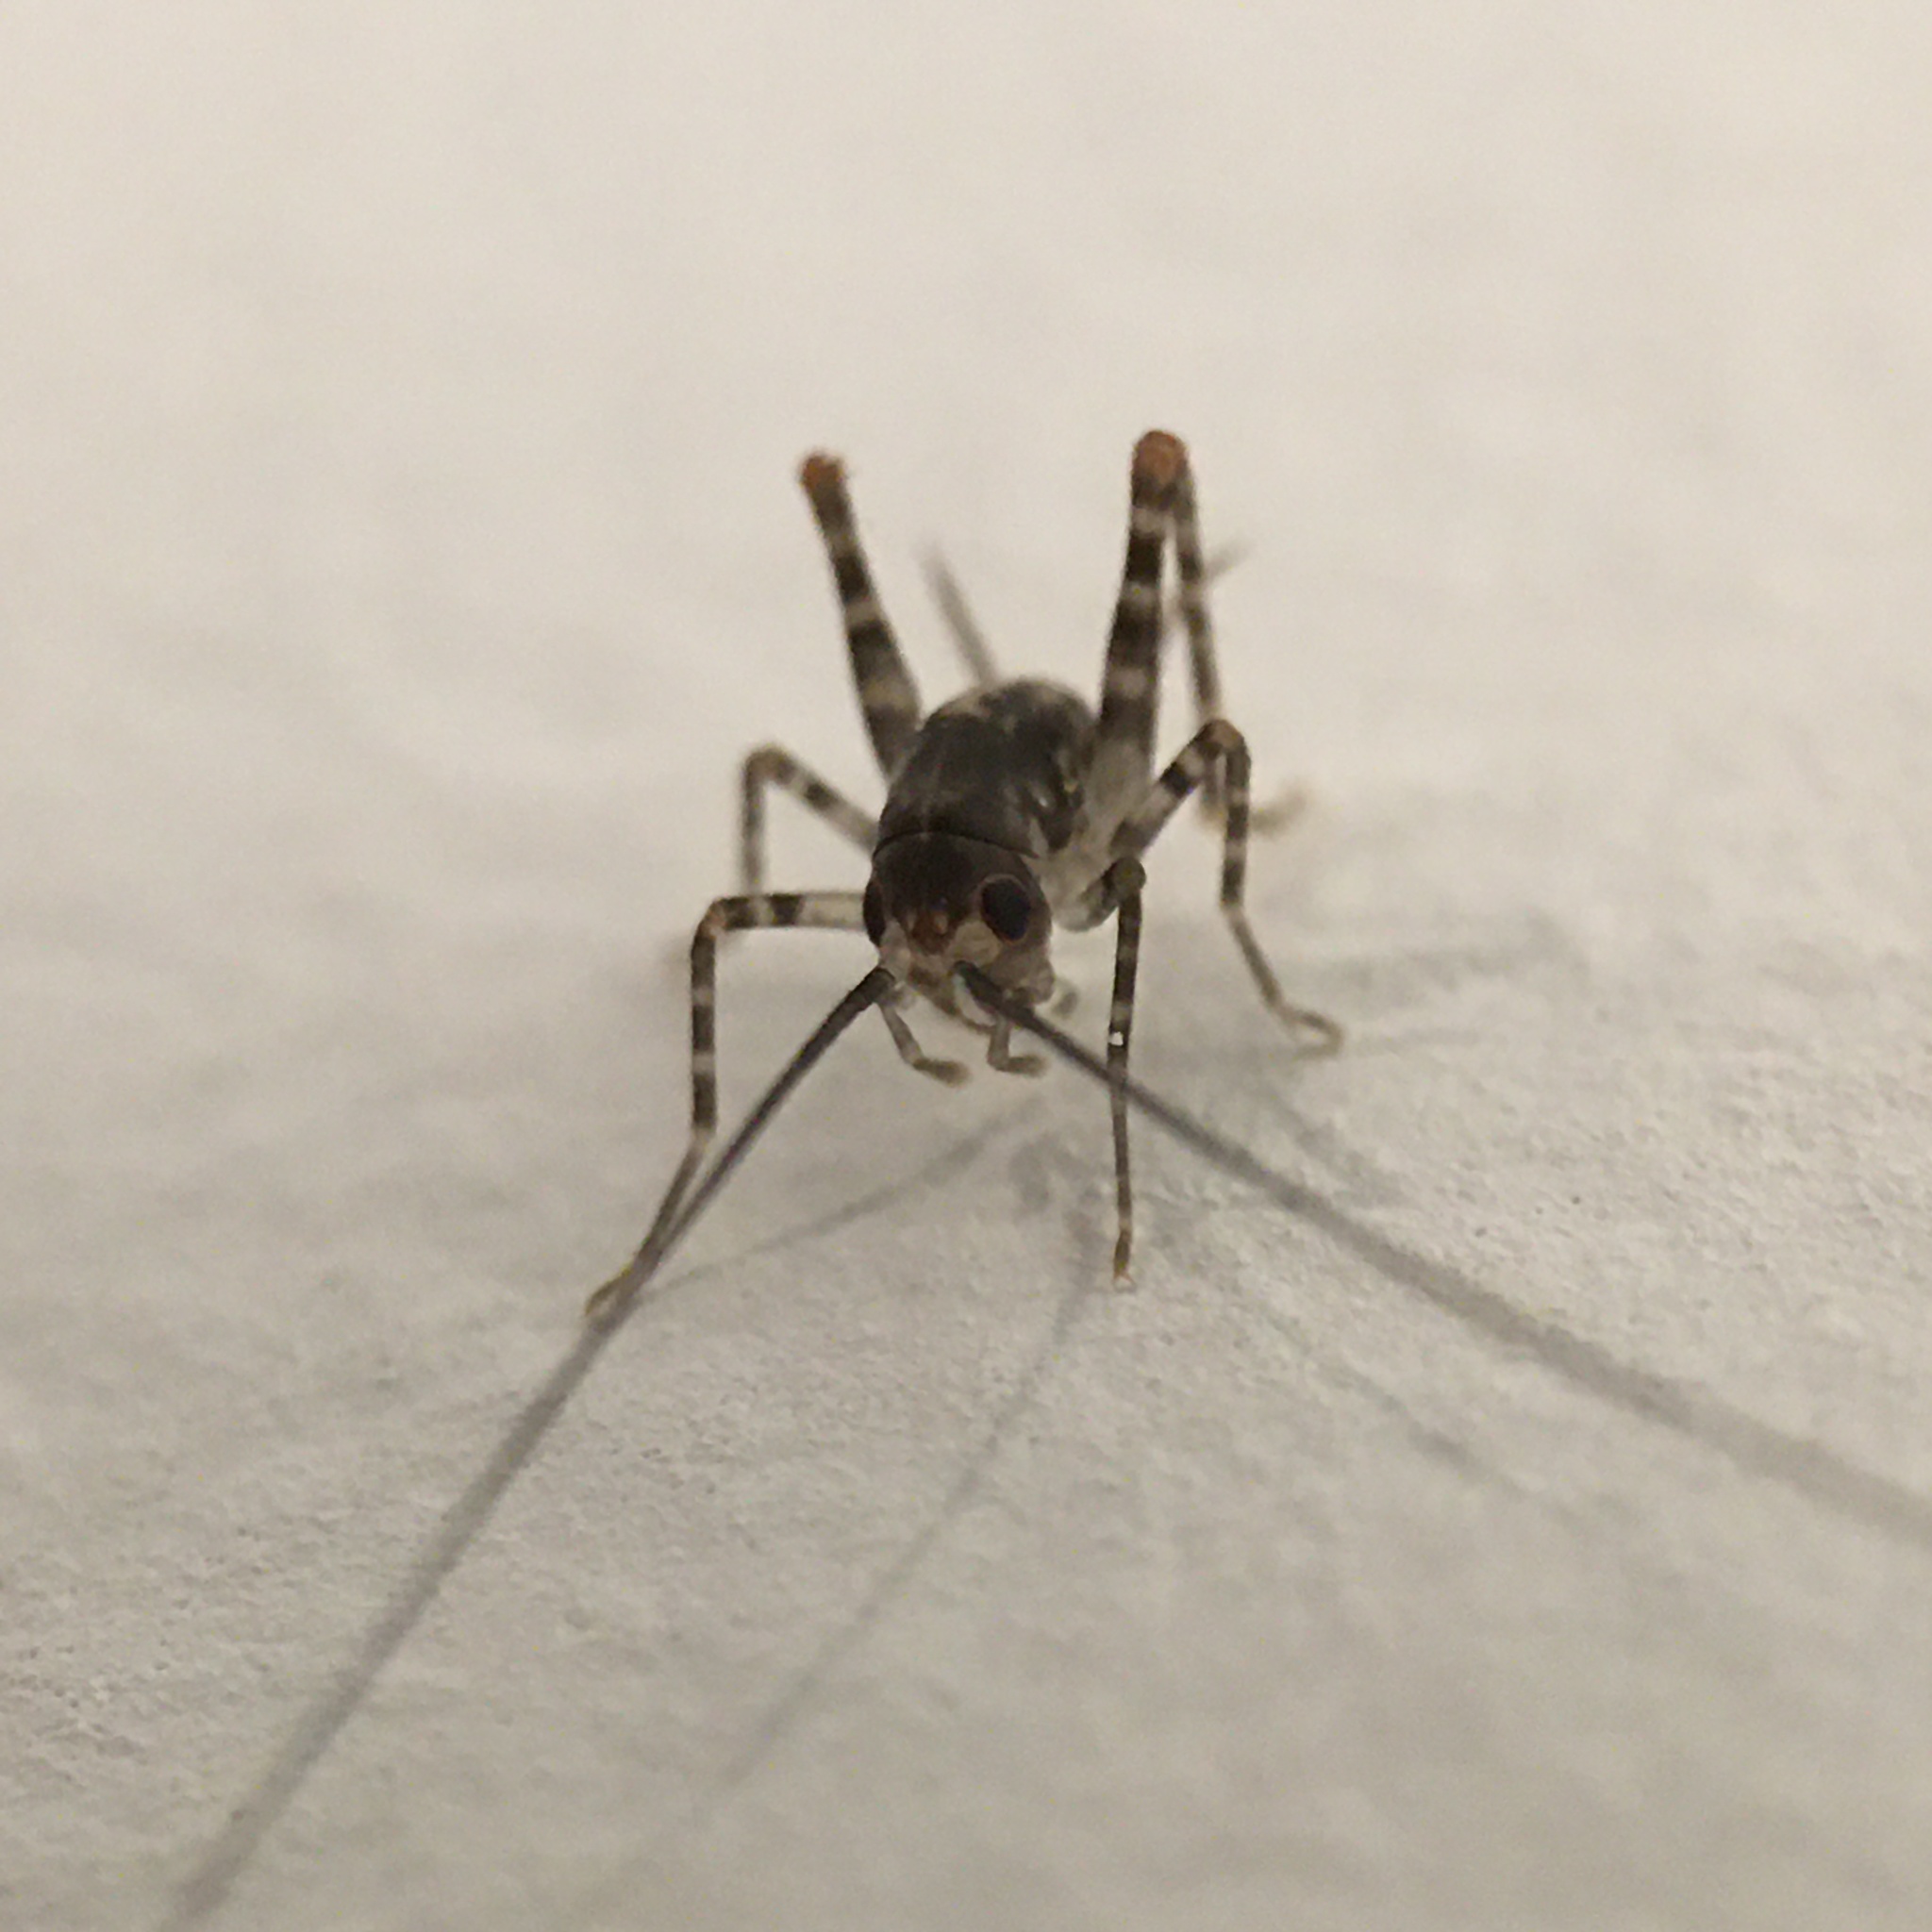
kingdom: Animalia
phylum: Arthropoda
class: Insecta
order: Orthoptera
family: Rhaphidophoridae
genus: Tachycines
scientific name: Tachycines asynamorus
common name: Greenhouse camel cricket
